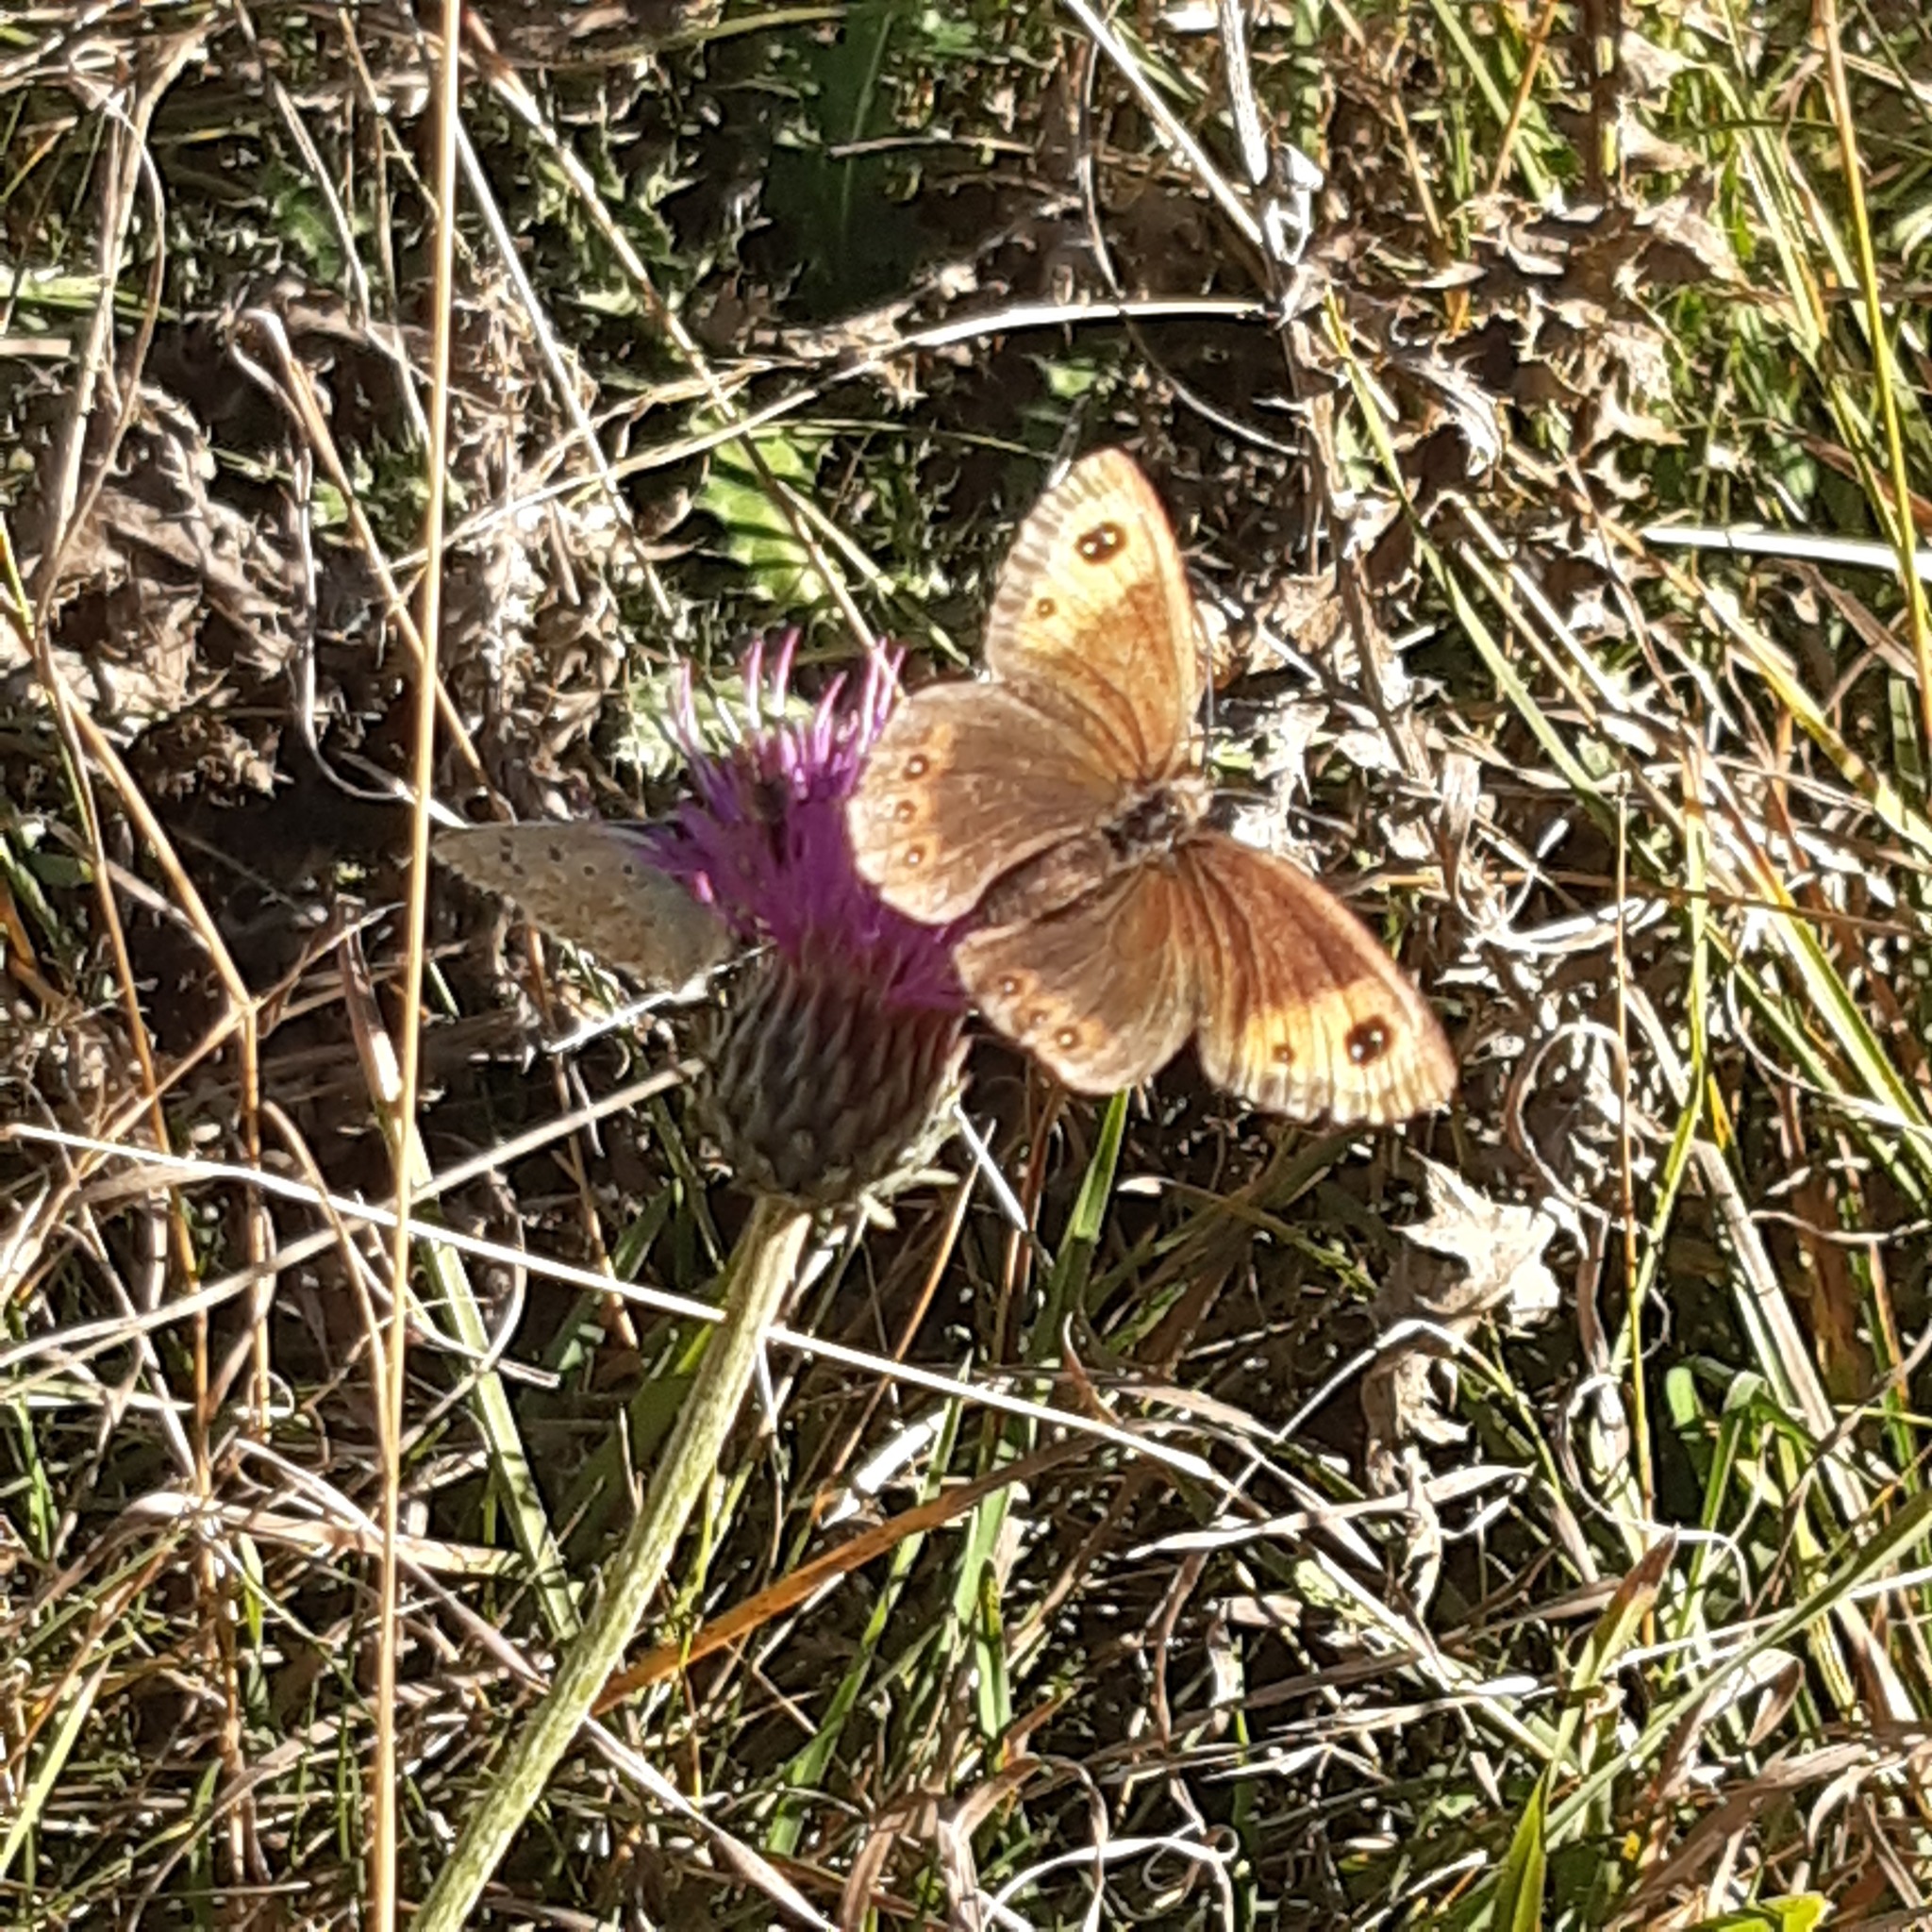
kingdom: Animalia
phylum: Arthropoda
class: Insecta
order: Lepidoptera
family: Nymphalidae
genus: Erebia
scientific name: Erebia neoridas
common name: Autumn ringlet
